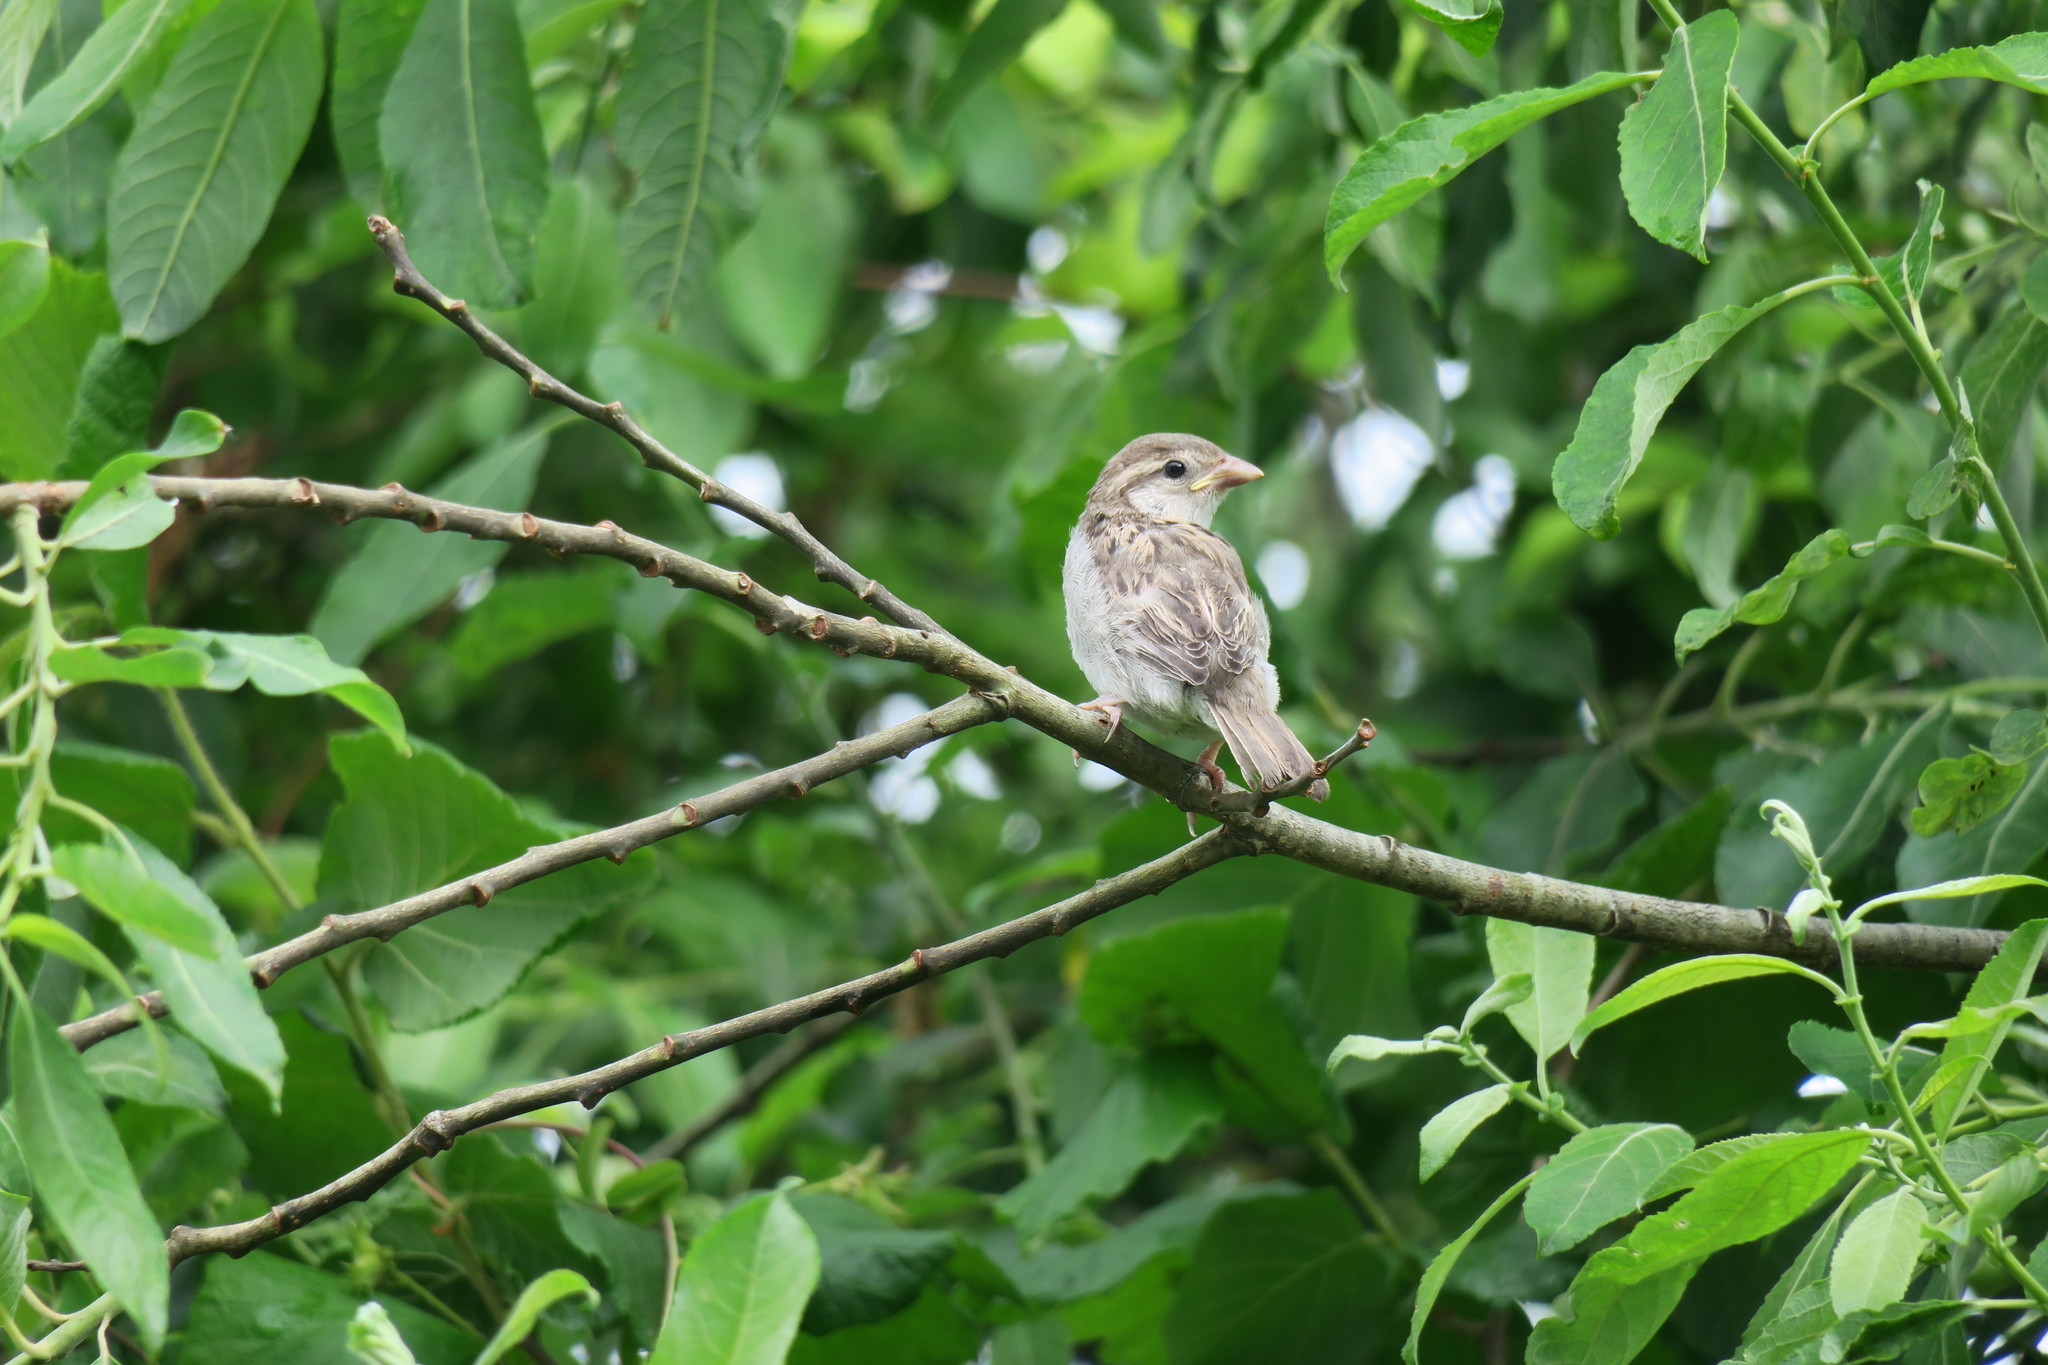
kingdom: Animalia
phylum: Chordata
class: Aves
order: Passeriformes
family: Passeridae
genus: Passer
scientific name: Passer domesticus
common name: House sparrow
